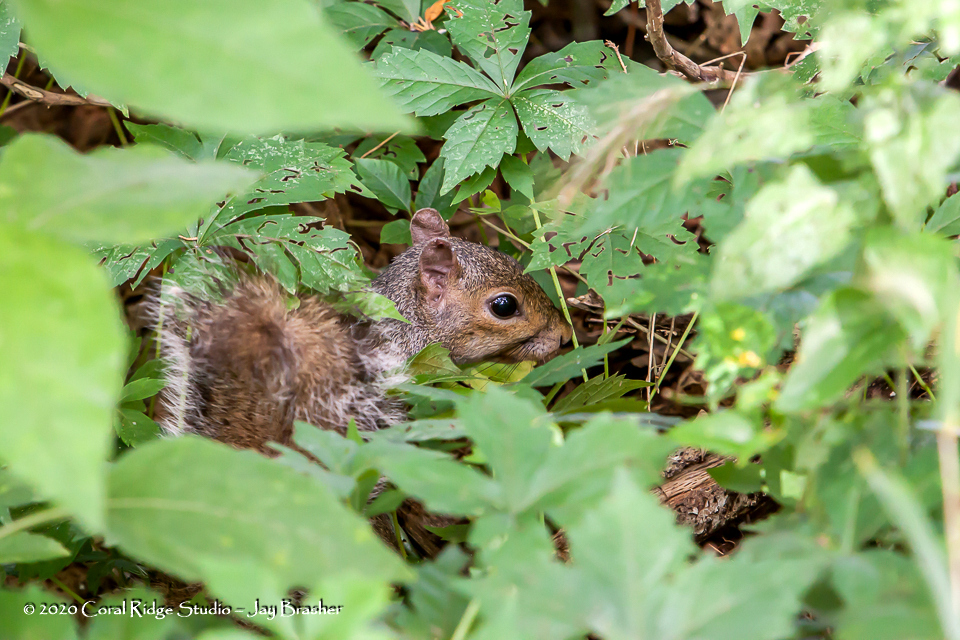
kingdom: Animalia
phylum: Chordata
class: Mammalia
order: Rodentia
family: Sciuridae
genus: Sciurus
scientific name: Sciurus carolinensis
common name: Eastern gray squirrel
